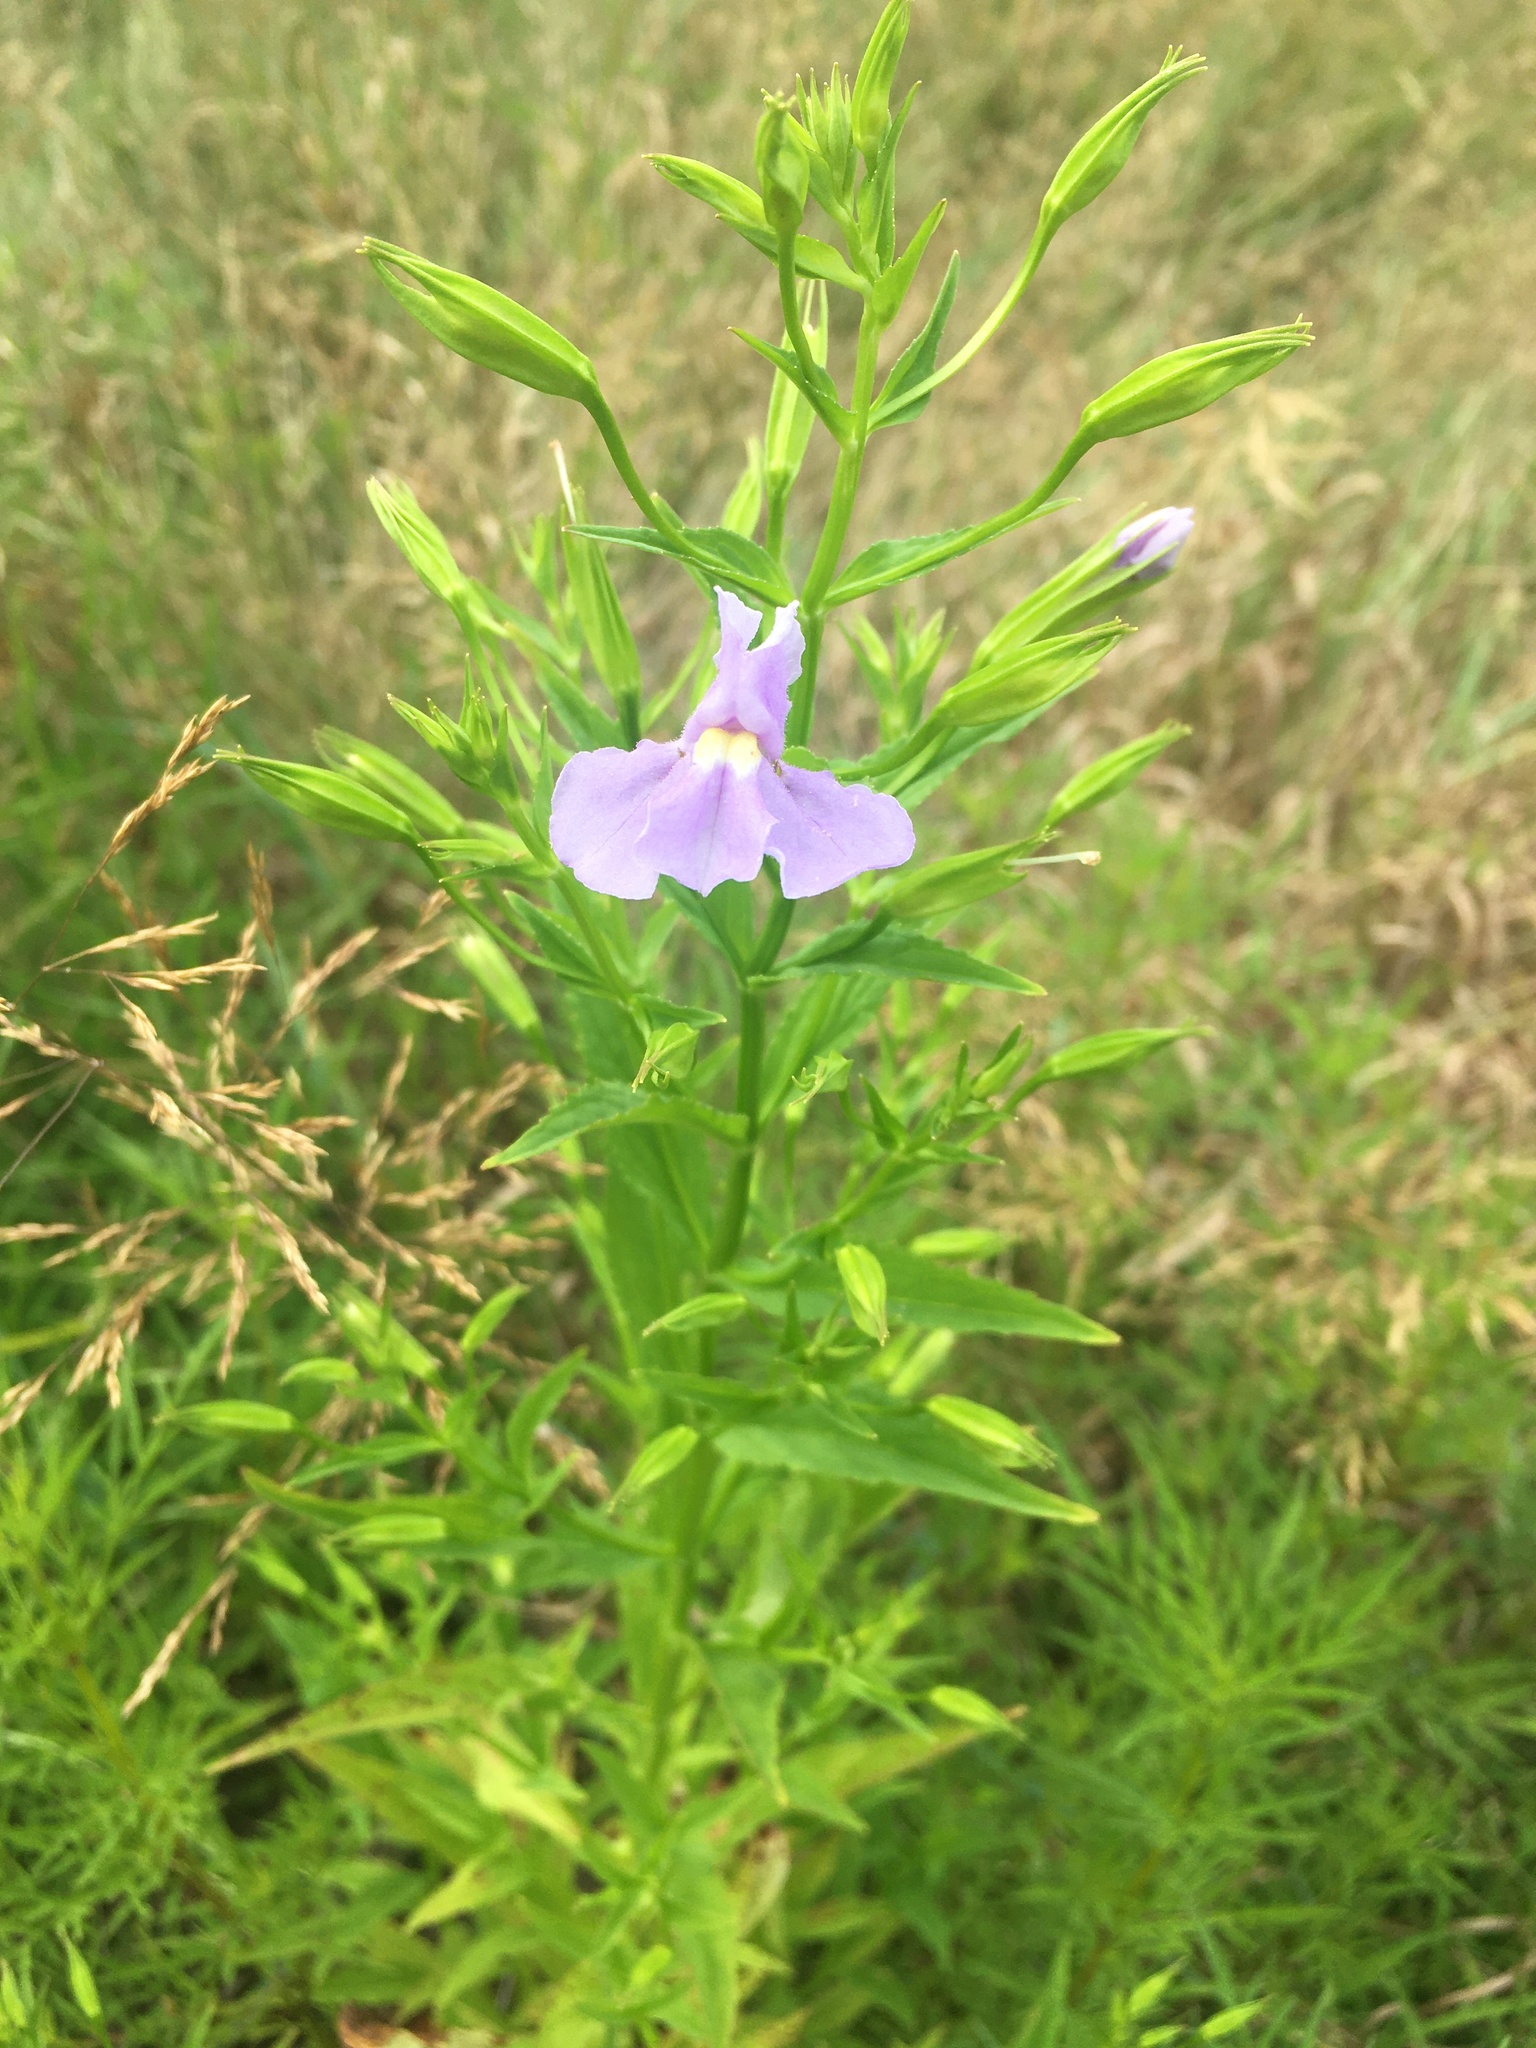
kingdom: Plantae
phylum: Tracheophyta
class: Magnoliopsida
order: Lamiales
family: Phrymaceae
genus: Mimulus
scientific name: Mimulus ringens
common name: Allegheny monkeyflower
